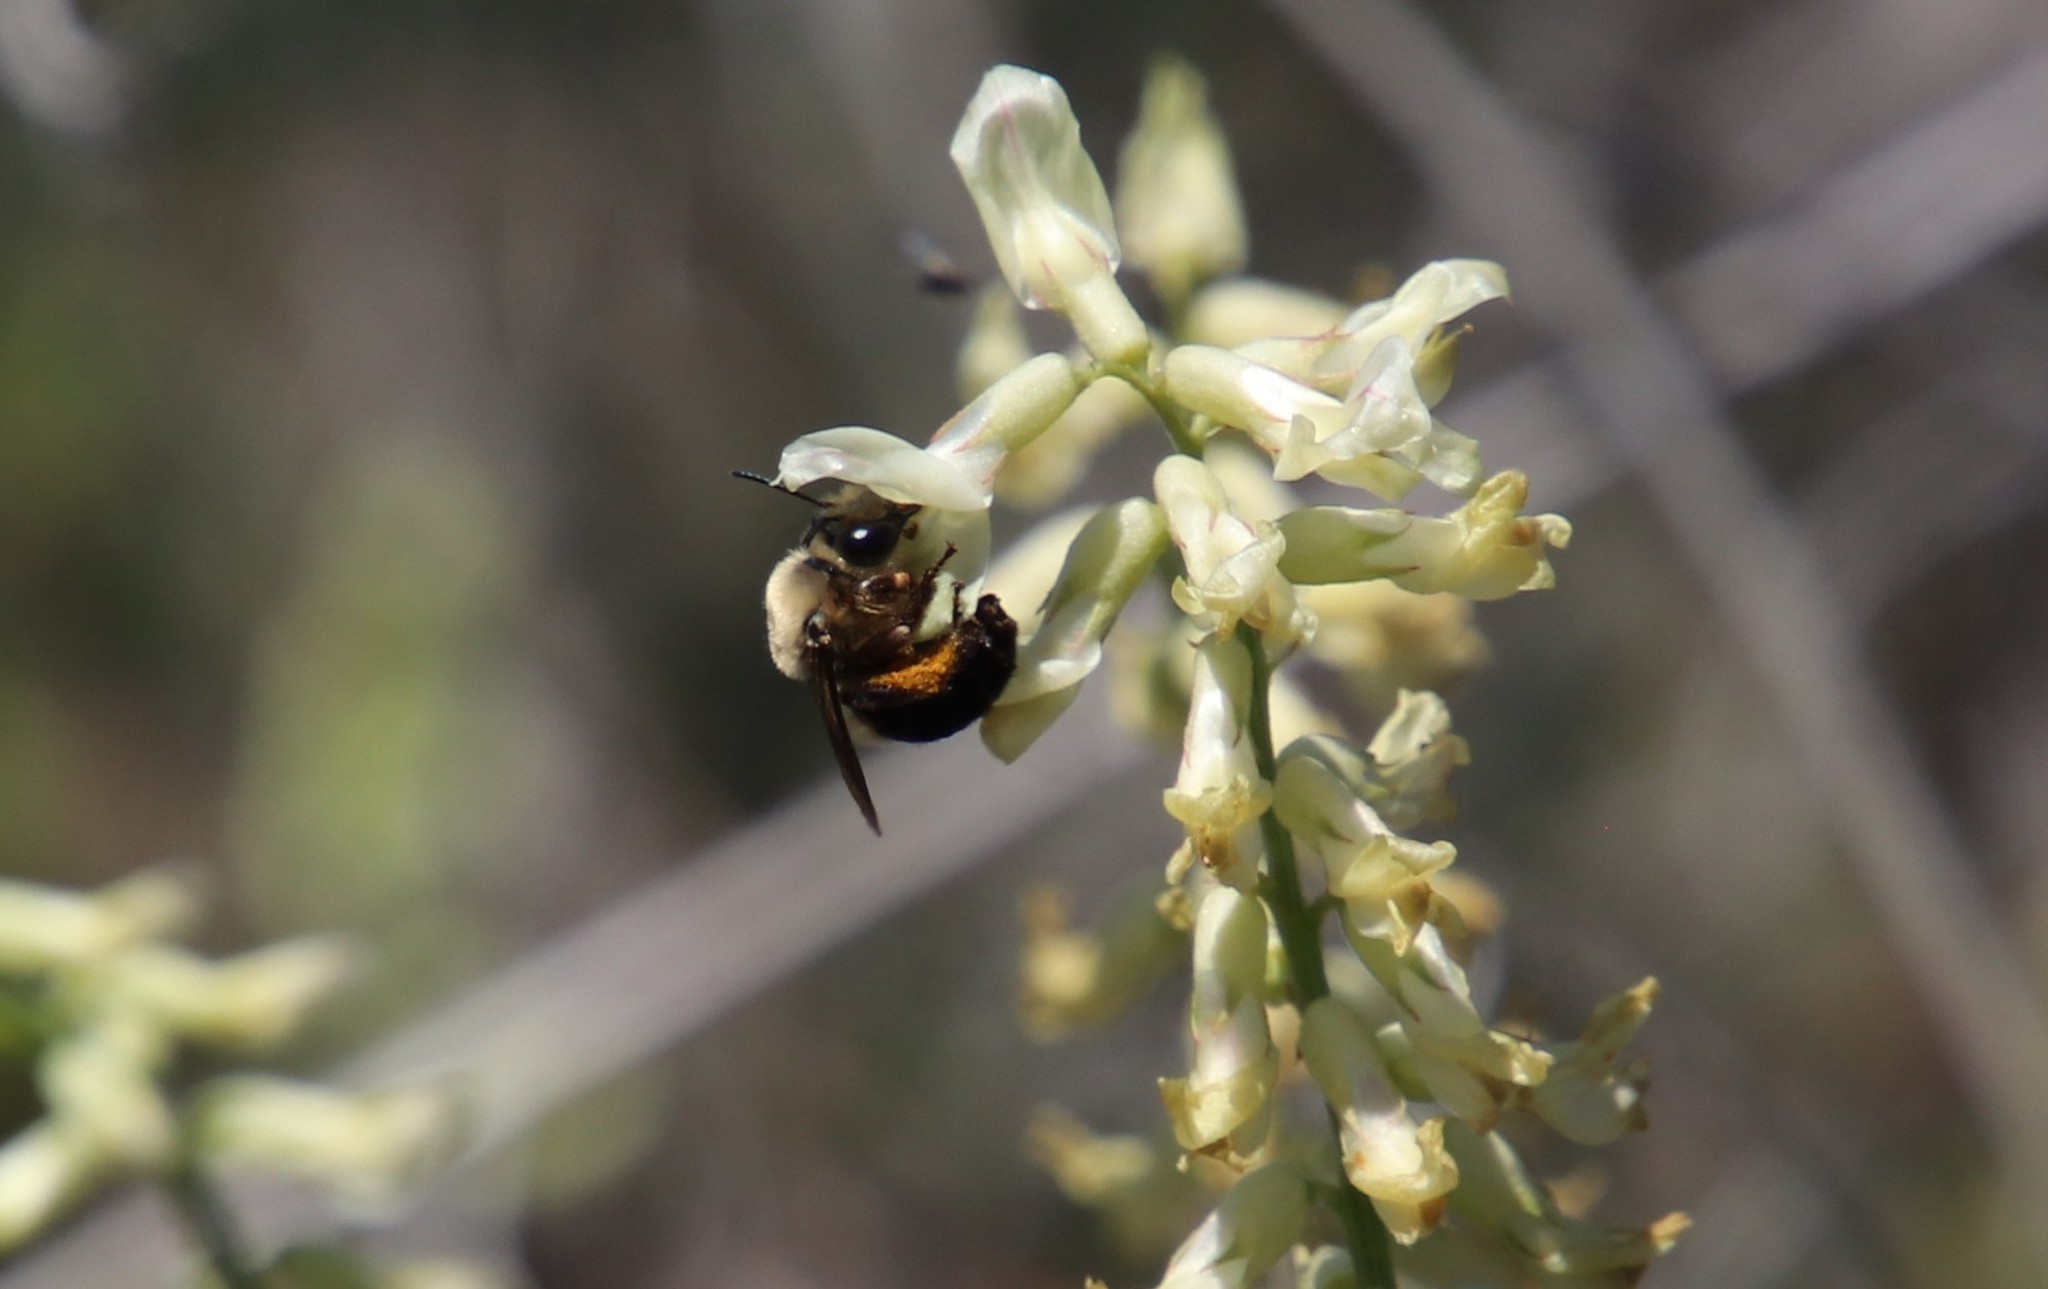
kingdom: Animalia
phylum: Arthropoda
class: Insecta
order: Hymenoptera
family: Apidae
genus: Eucera
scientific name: Eucera frater
